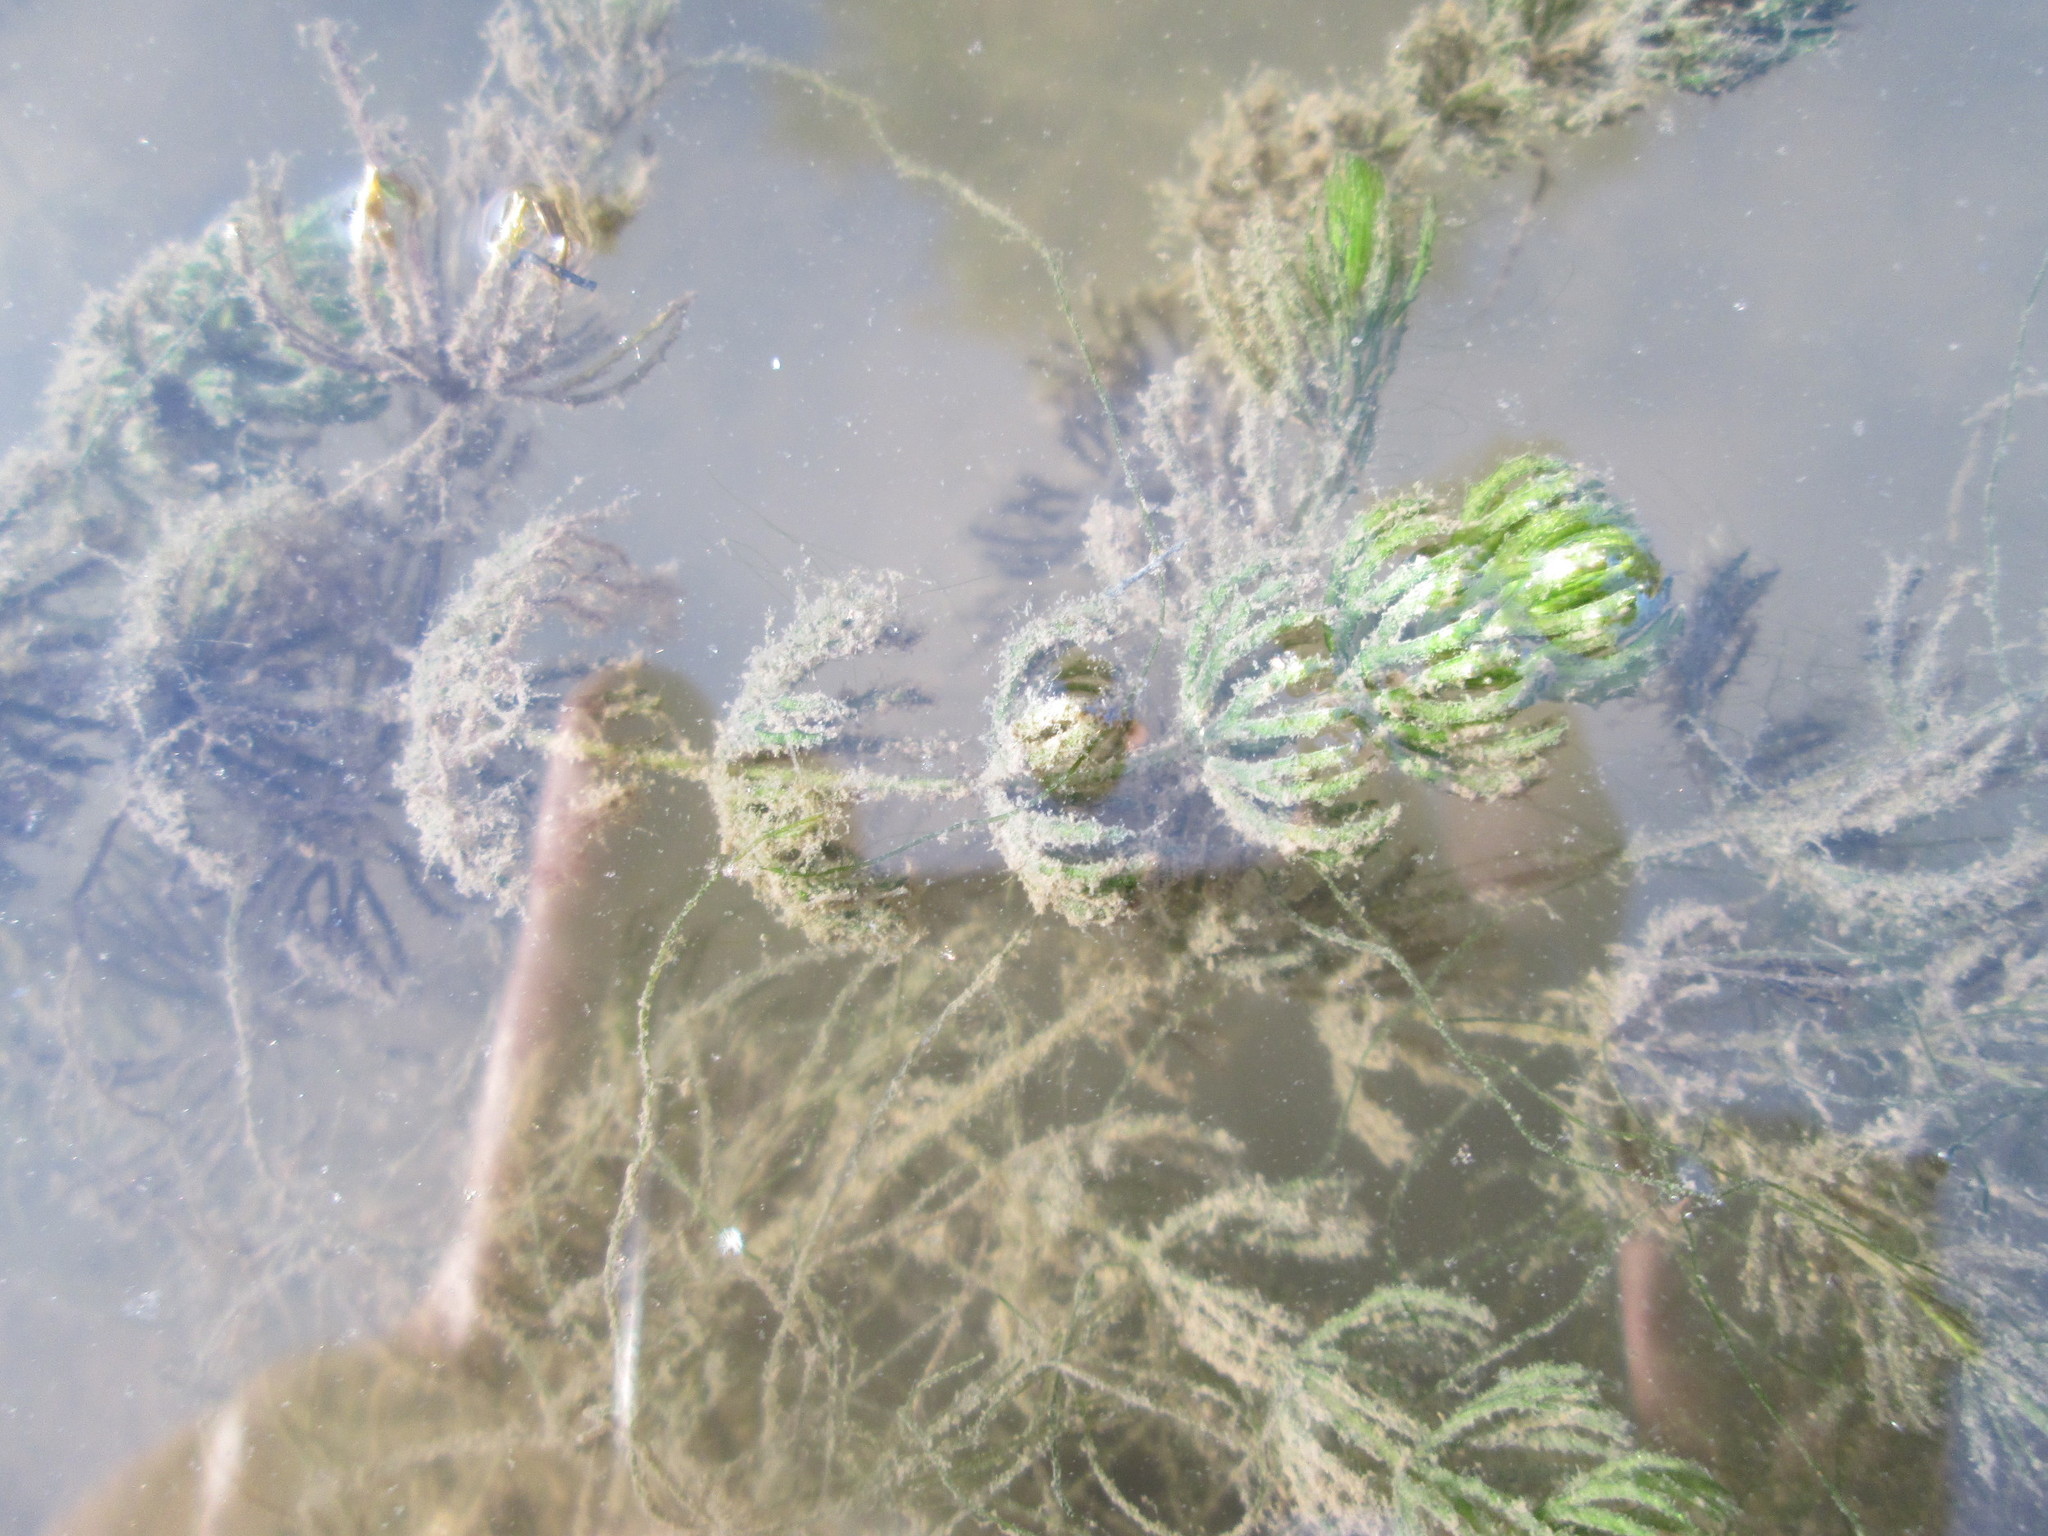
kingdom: Plantae
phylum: Tracheophyta
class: Magnoliopsida
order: Ceratophyllales
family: Ceratophyllaceae
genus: Ceratophyllum
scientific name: Ceratophyllum demersum
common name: Rigid hornwort
